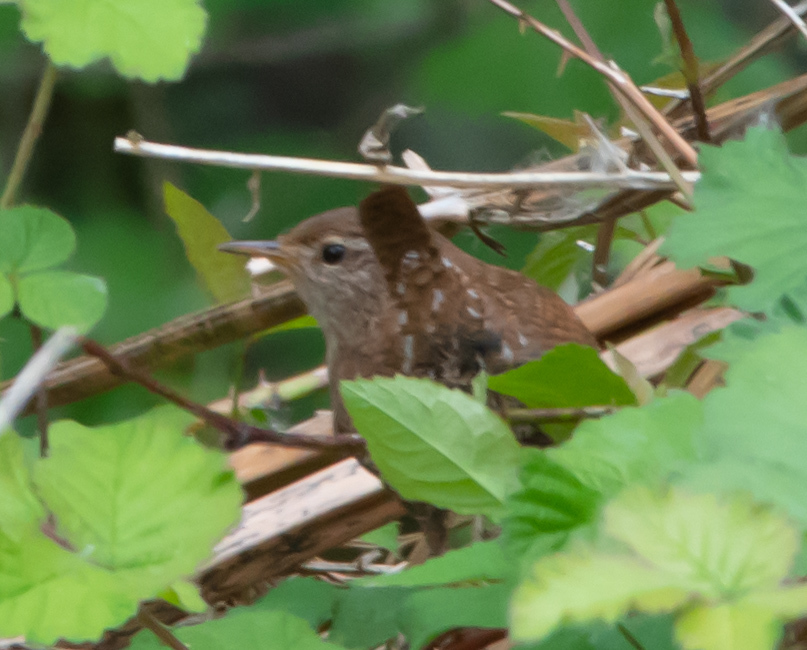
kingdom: Animalia
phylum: Chordata
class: Aves
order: Passeriformes
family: Troglodytidae
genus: Troglodytes
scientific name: Troglodytes troglodytes
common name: Eurasian wren
